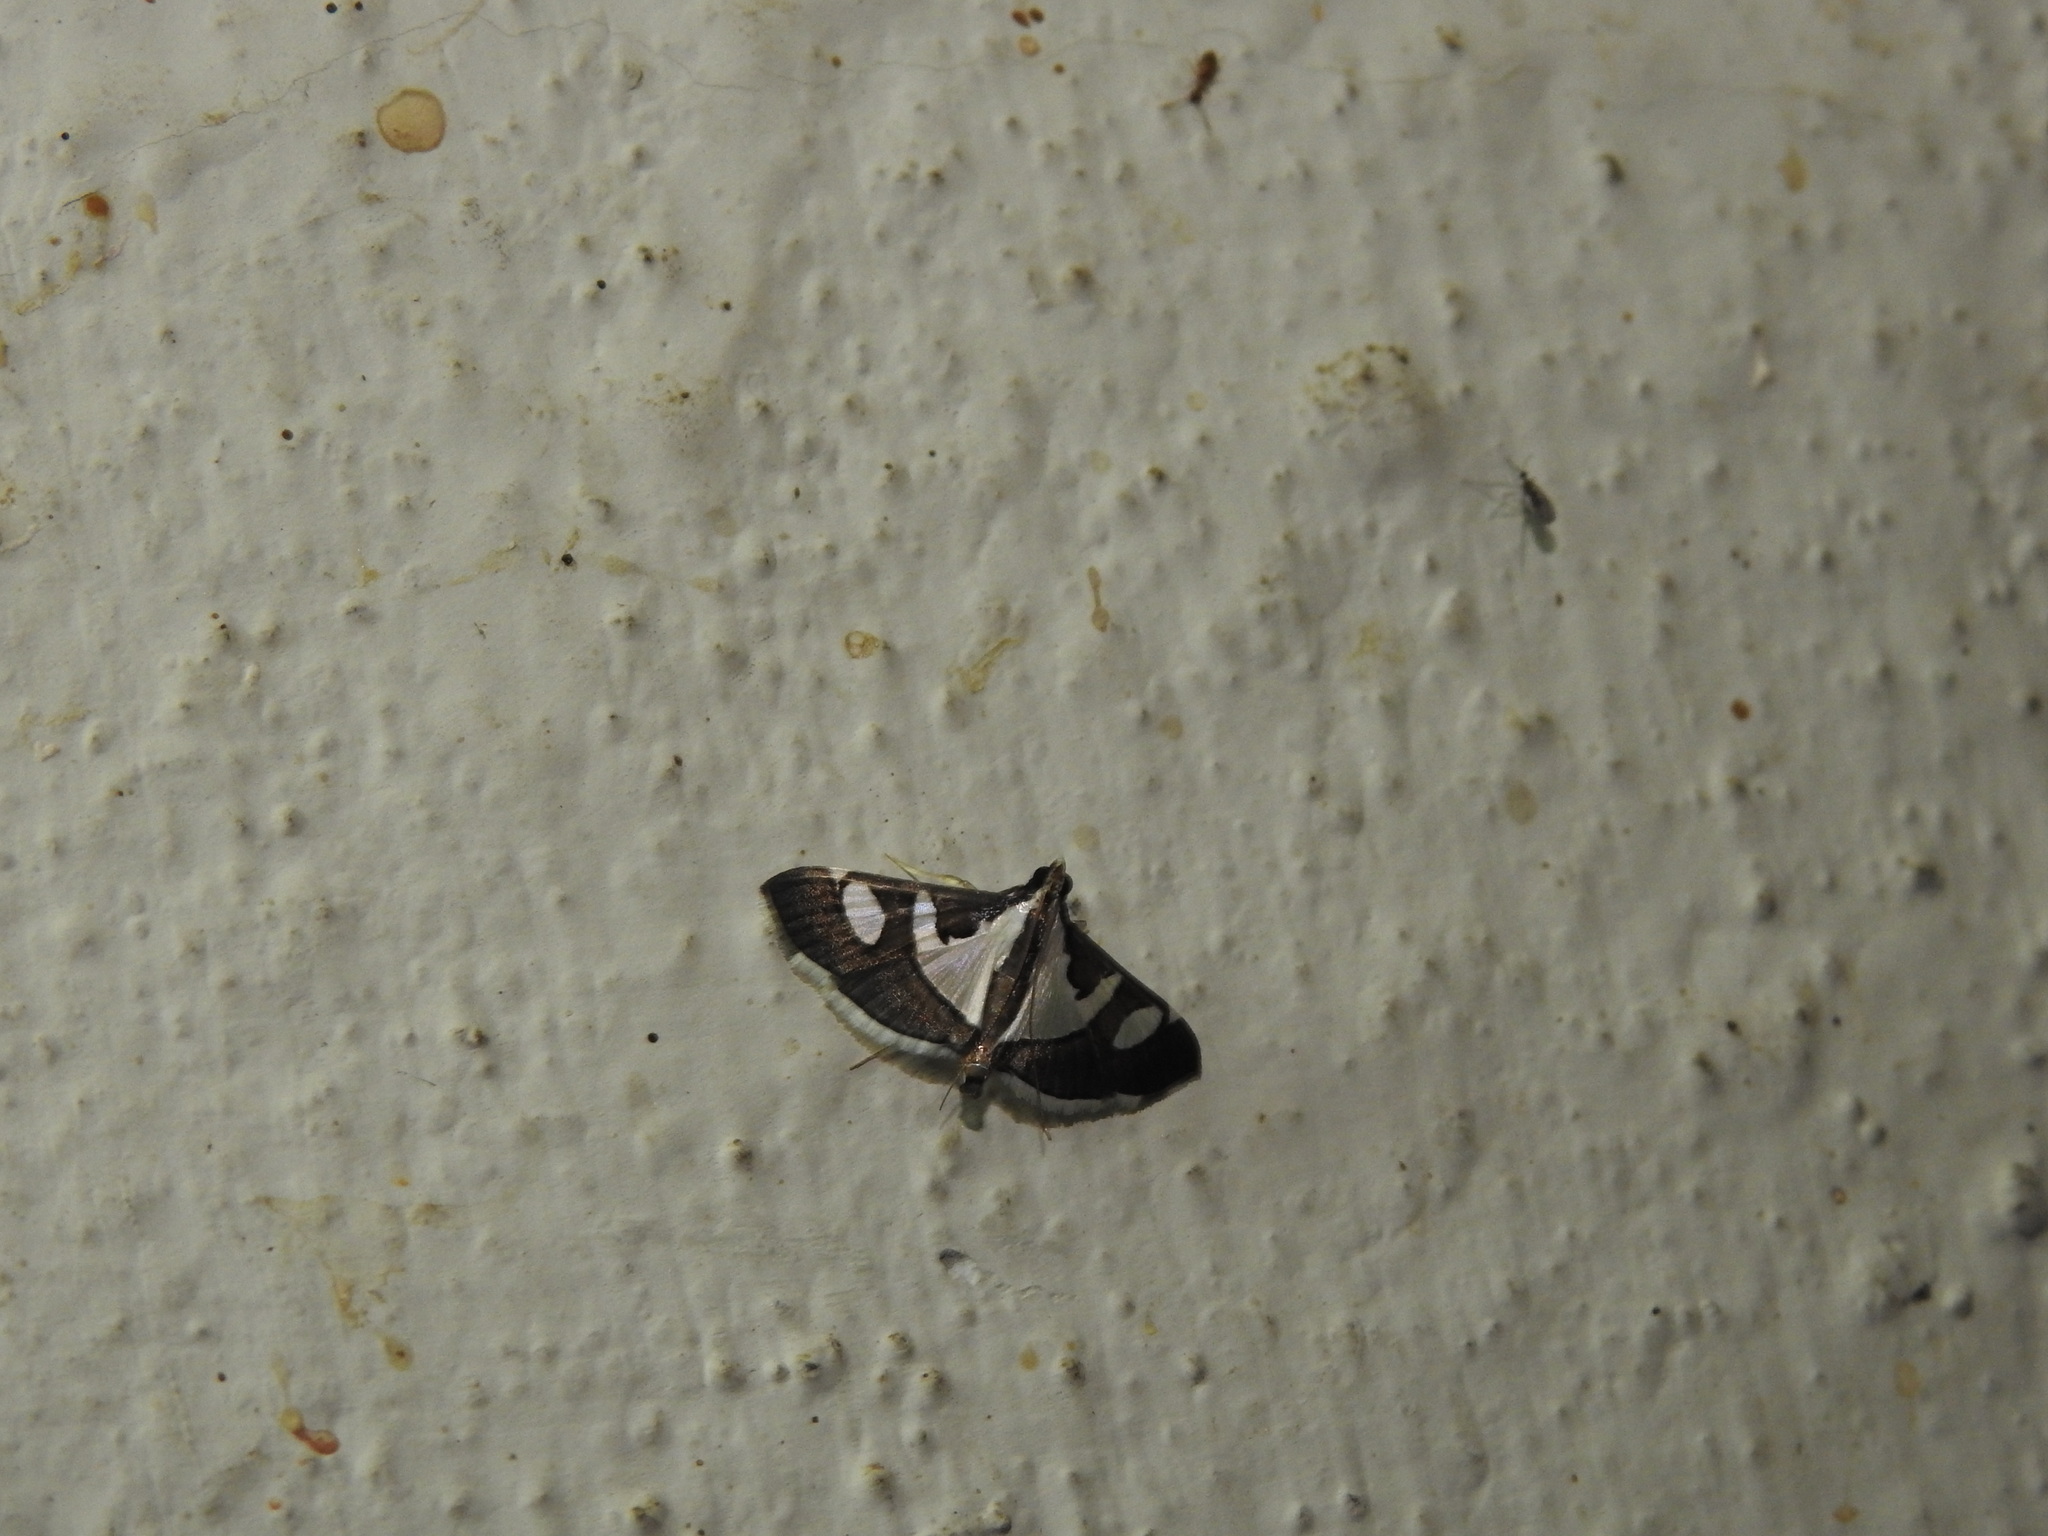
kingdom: Animalia
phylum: Arthropoda
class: Insecta
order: Lepidoptera
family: Crambidae
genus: Glyphodes
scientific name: Glyphodes bicolor
